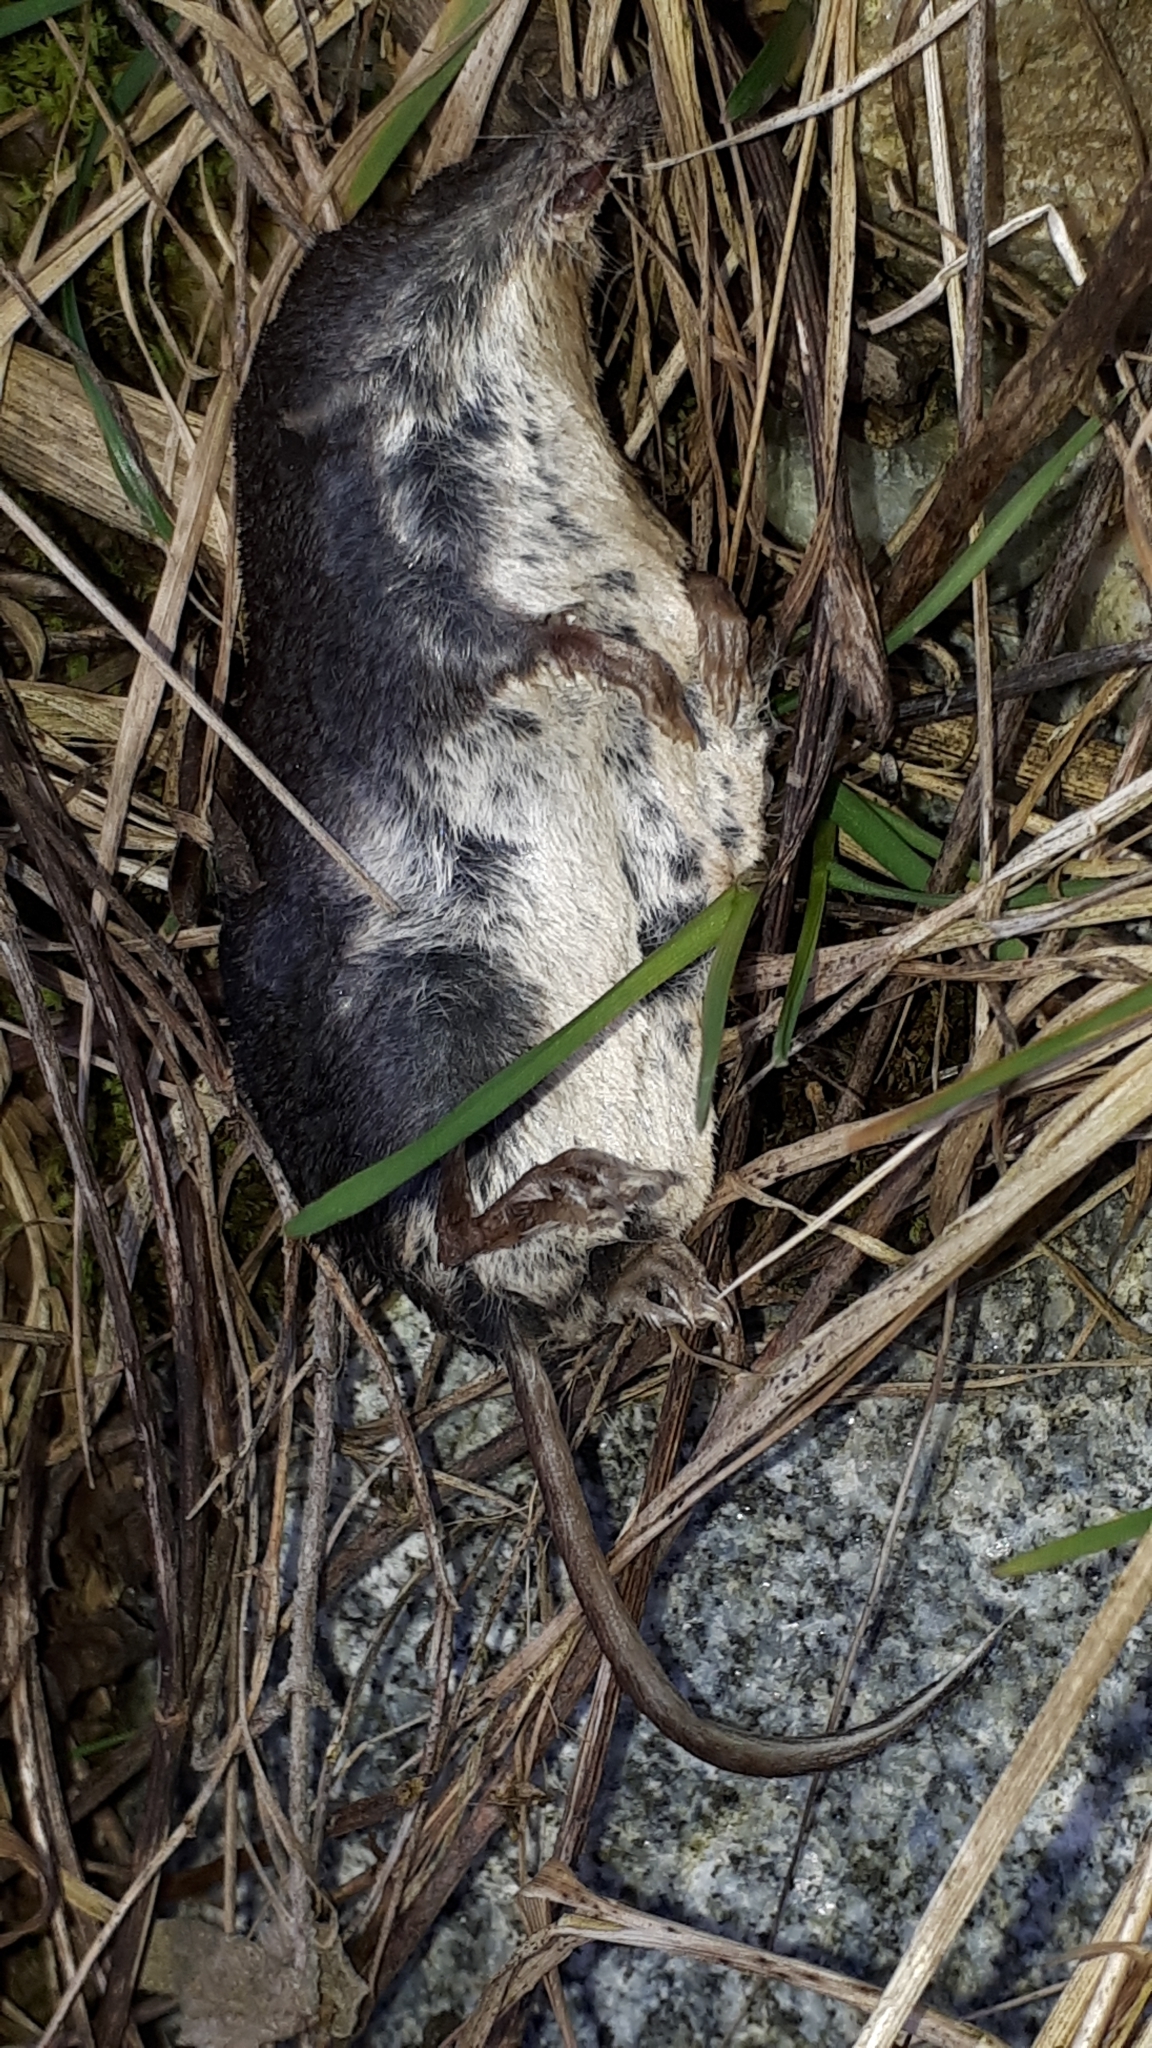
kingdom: Animalia
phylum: Chordata
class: Mammalia
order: Soricomorpha
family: Soricidae
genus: Neomys
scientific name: Neomys fodiens
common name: Eurasian water shrew
